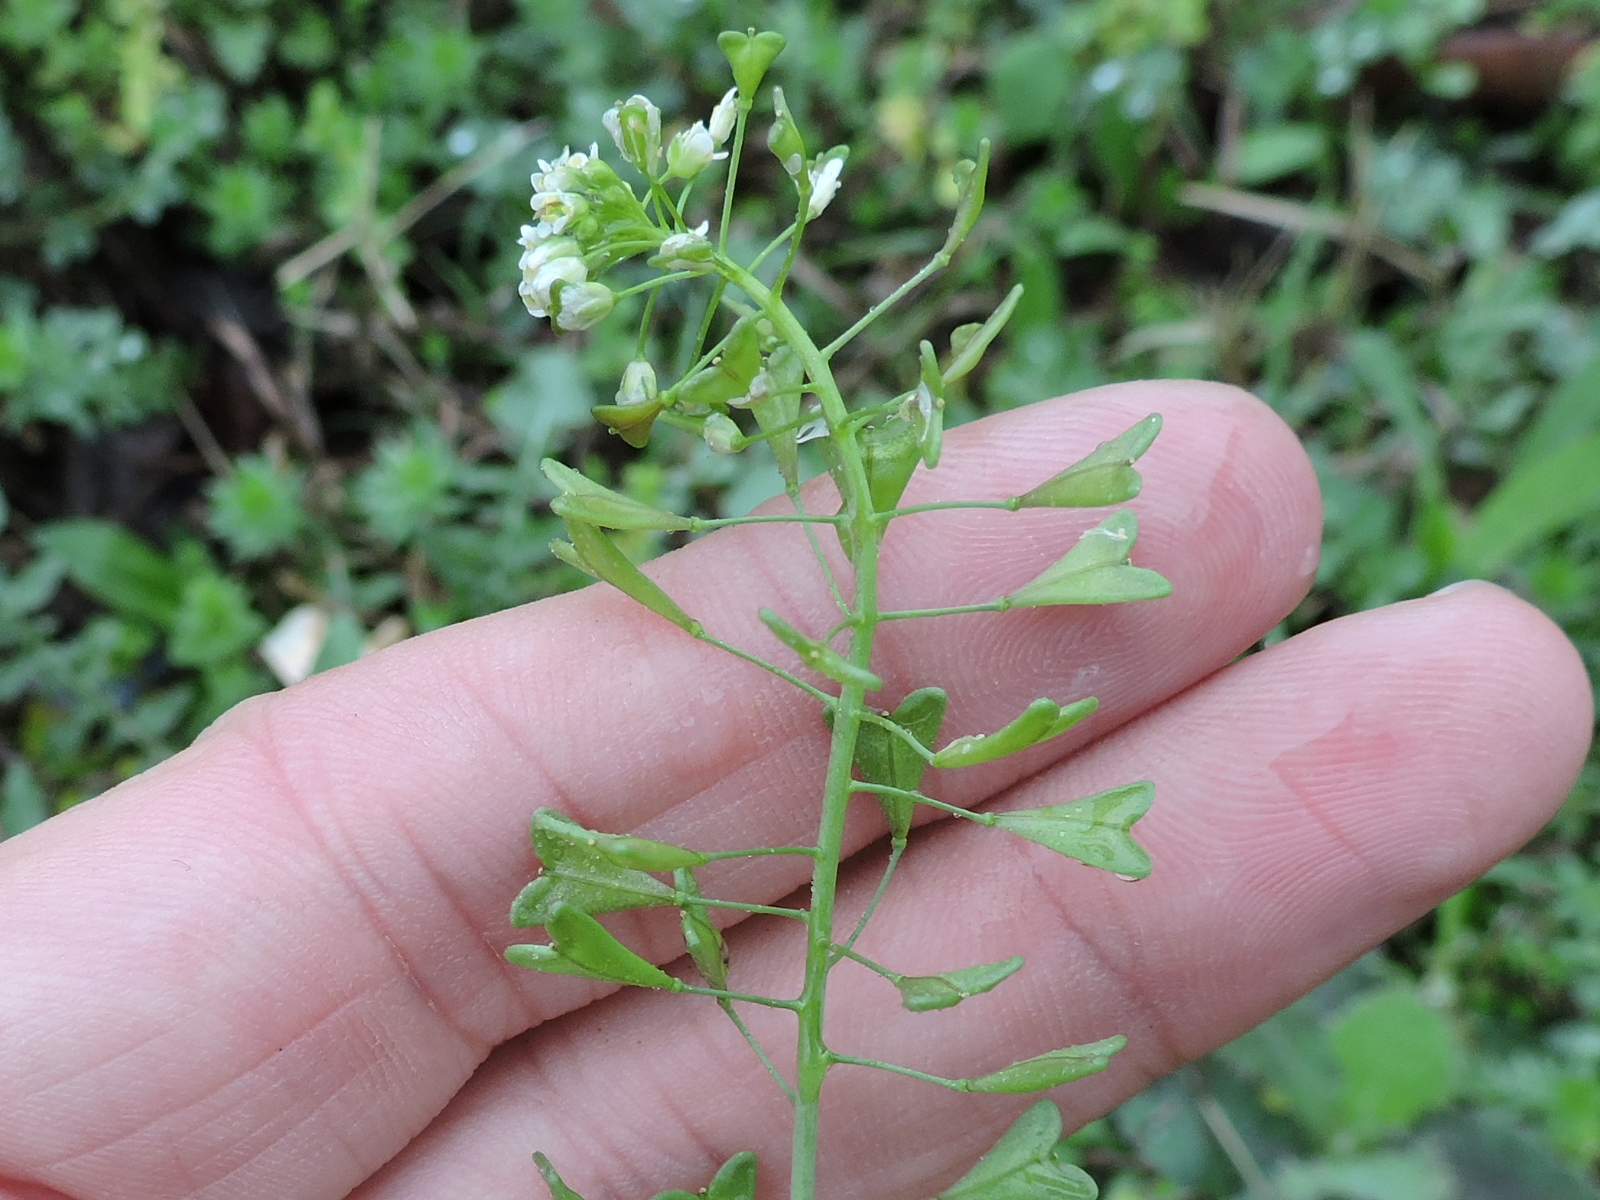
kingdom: Plantae
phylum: Tracheophyta
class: Magnoliopsida
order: Brassicales
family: Brassicaceae
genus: Capsella
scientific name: Capsella bursa-pastoris
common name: Shepherd's purse
